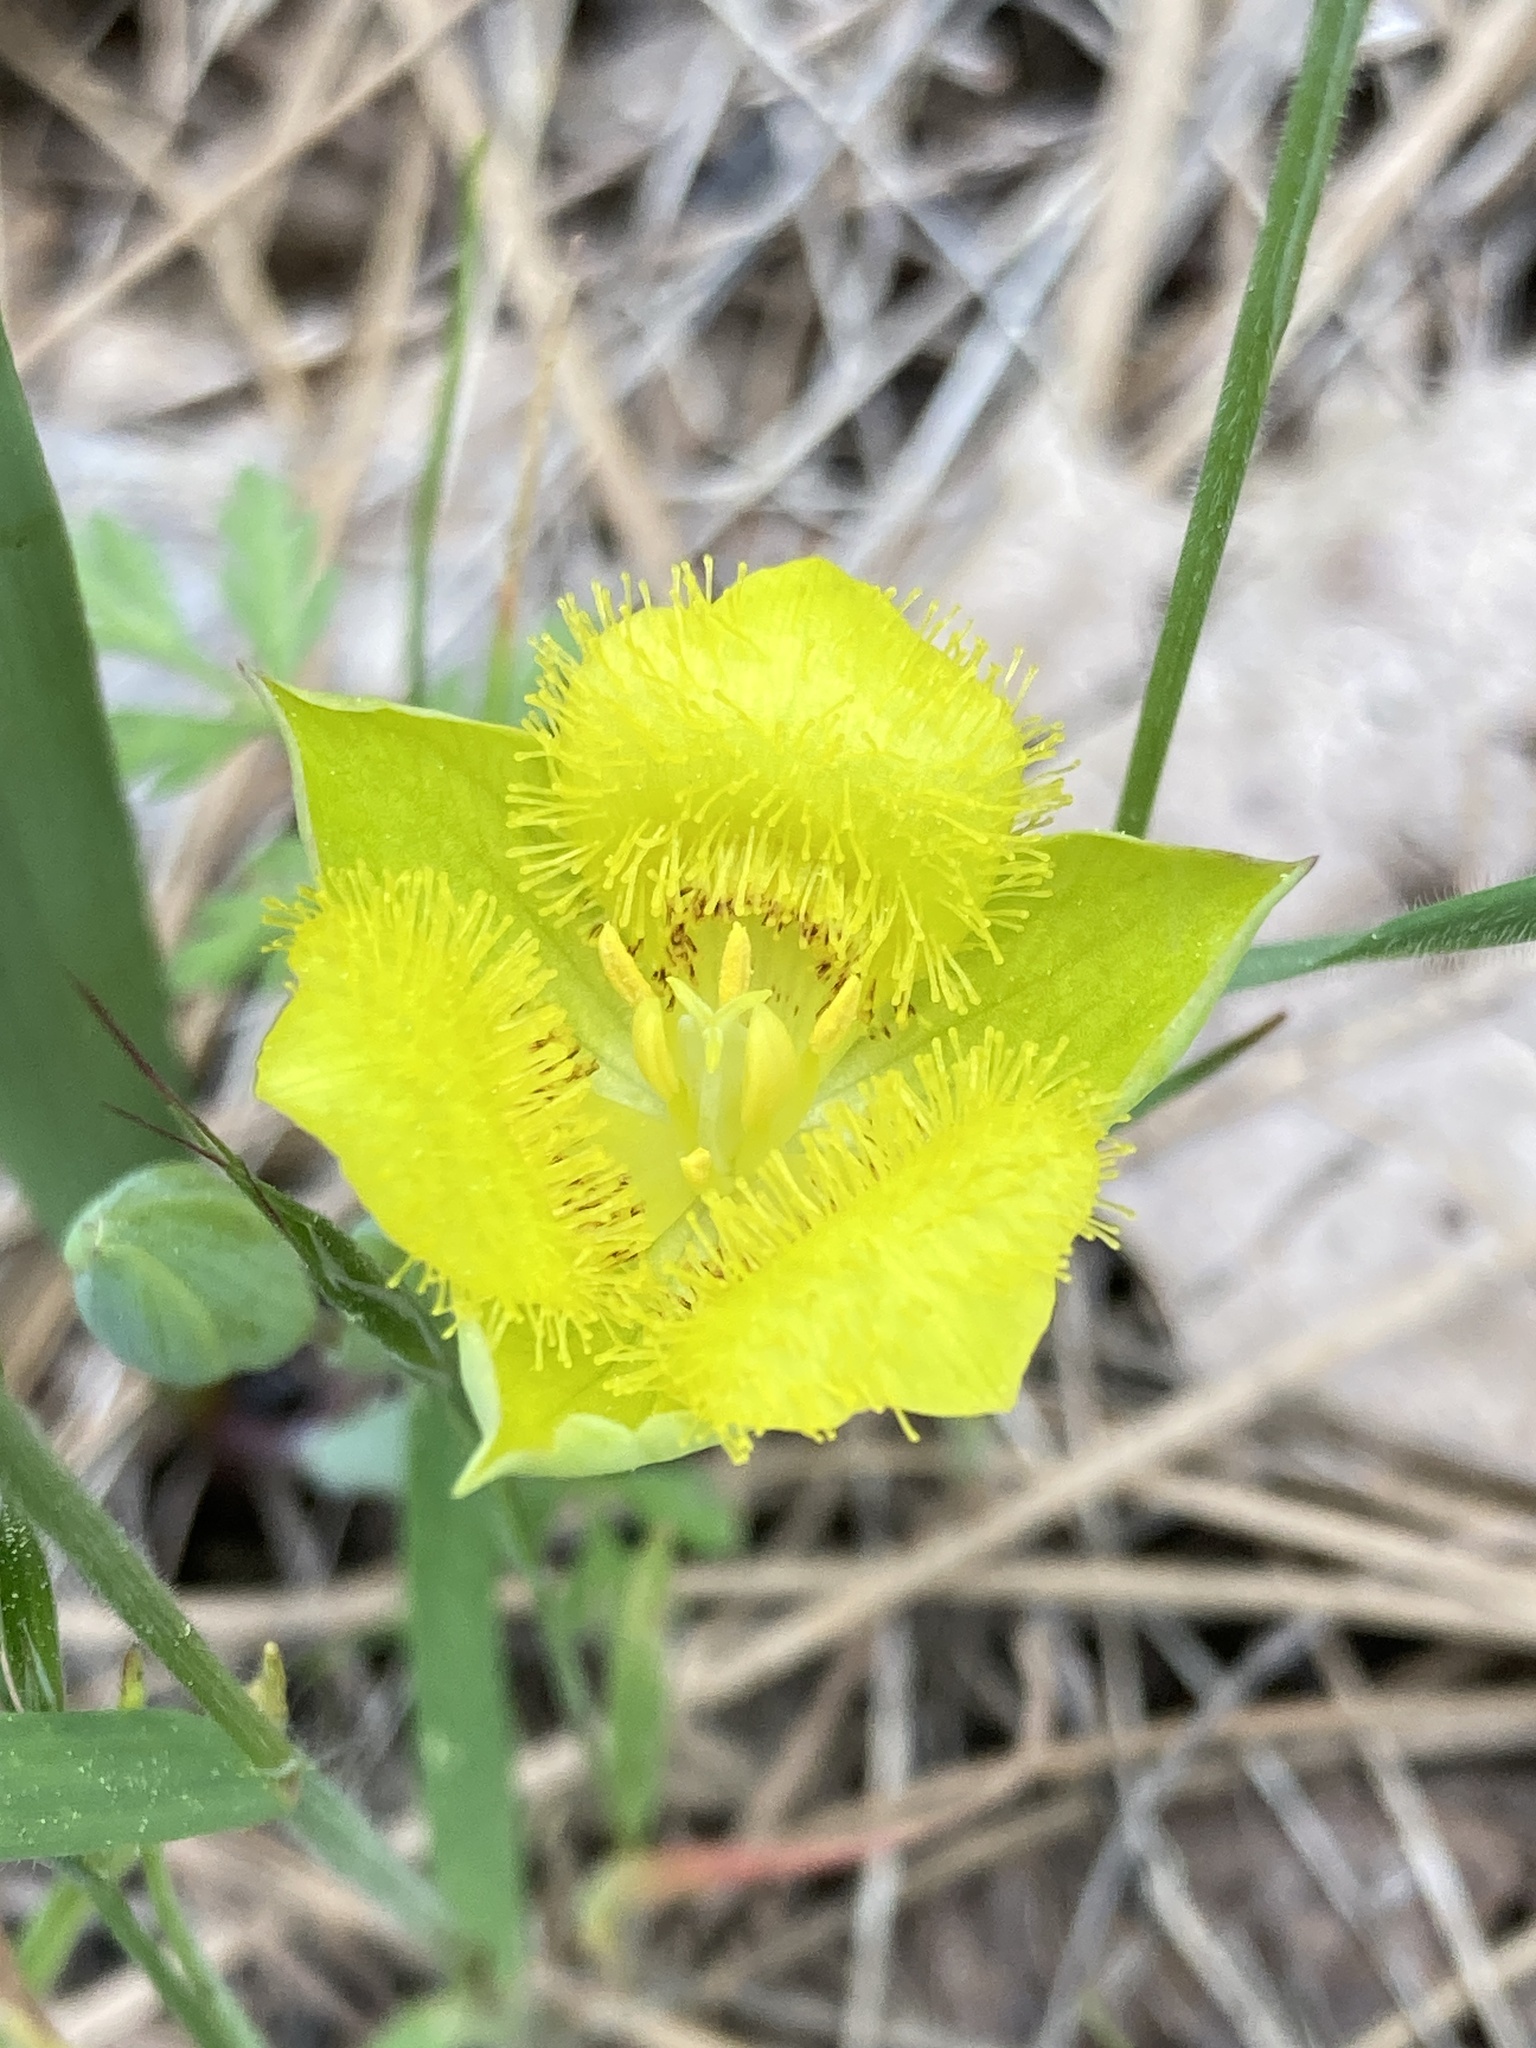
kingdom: Plantae
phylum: Tracheophyta
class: Liliopsida
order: Liliales
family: Liliaceae
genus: Calochortus
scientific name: Calochortus monophyllus
